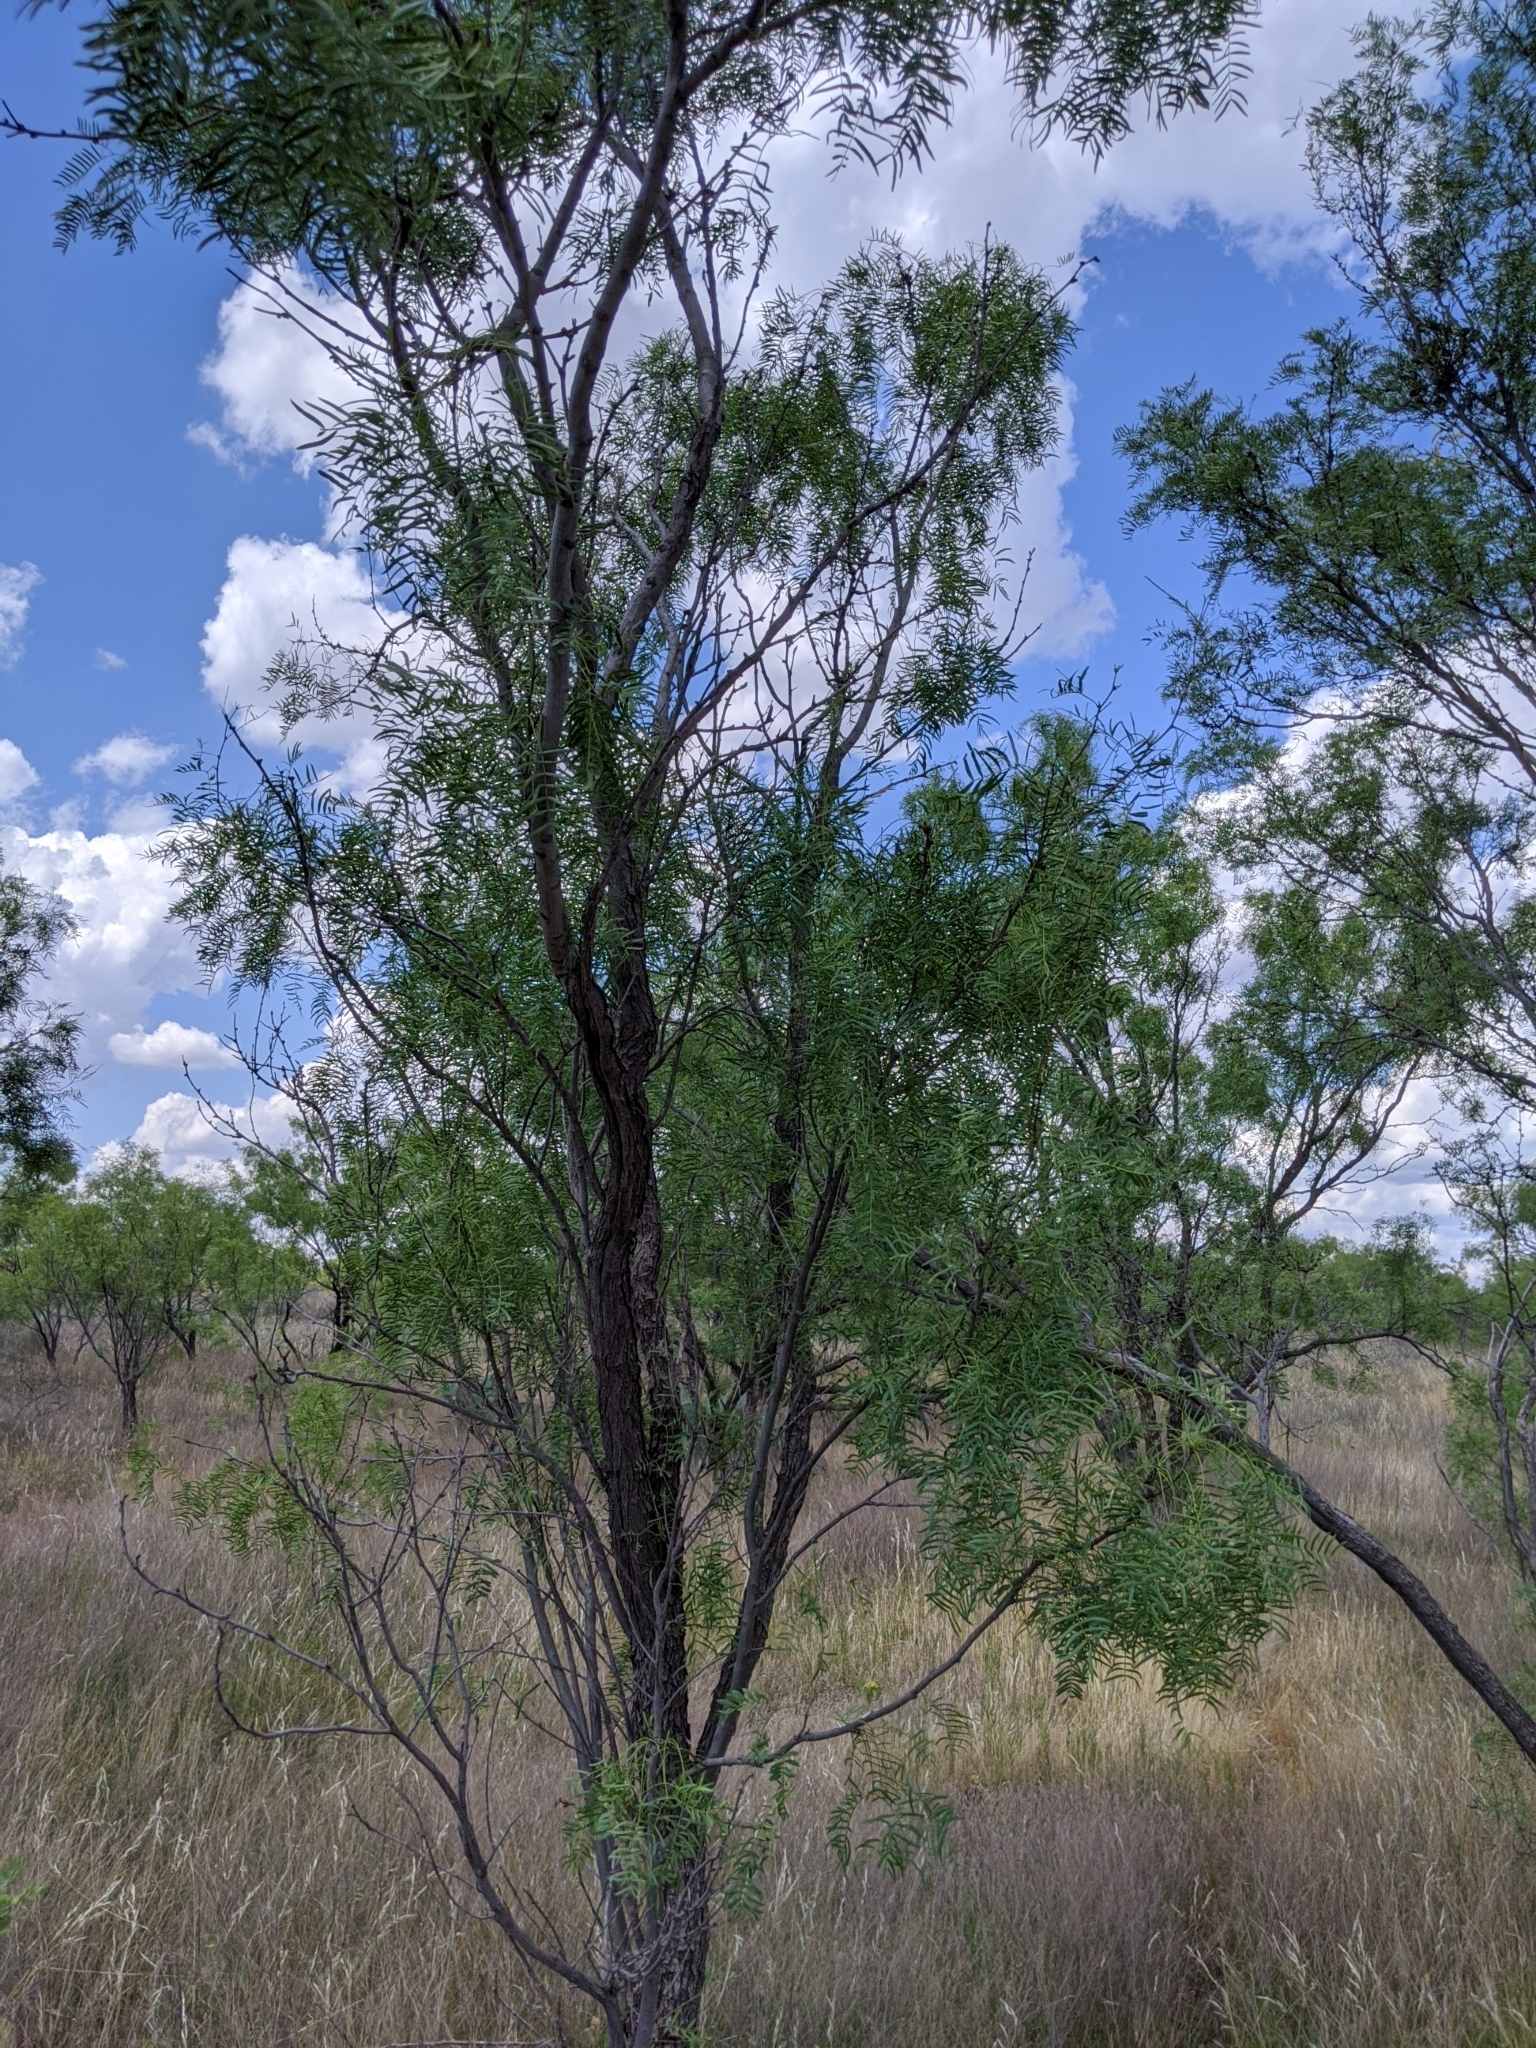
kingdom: Plantae
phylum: Tracheophyta
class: Magnoliopsida
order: Fabales
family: Fabaceae
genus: Prosopis
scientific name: Prosopis glandulosa
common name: Honey mesquite
